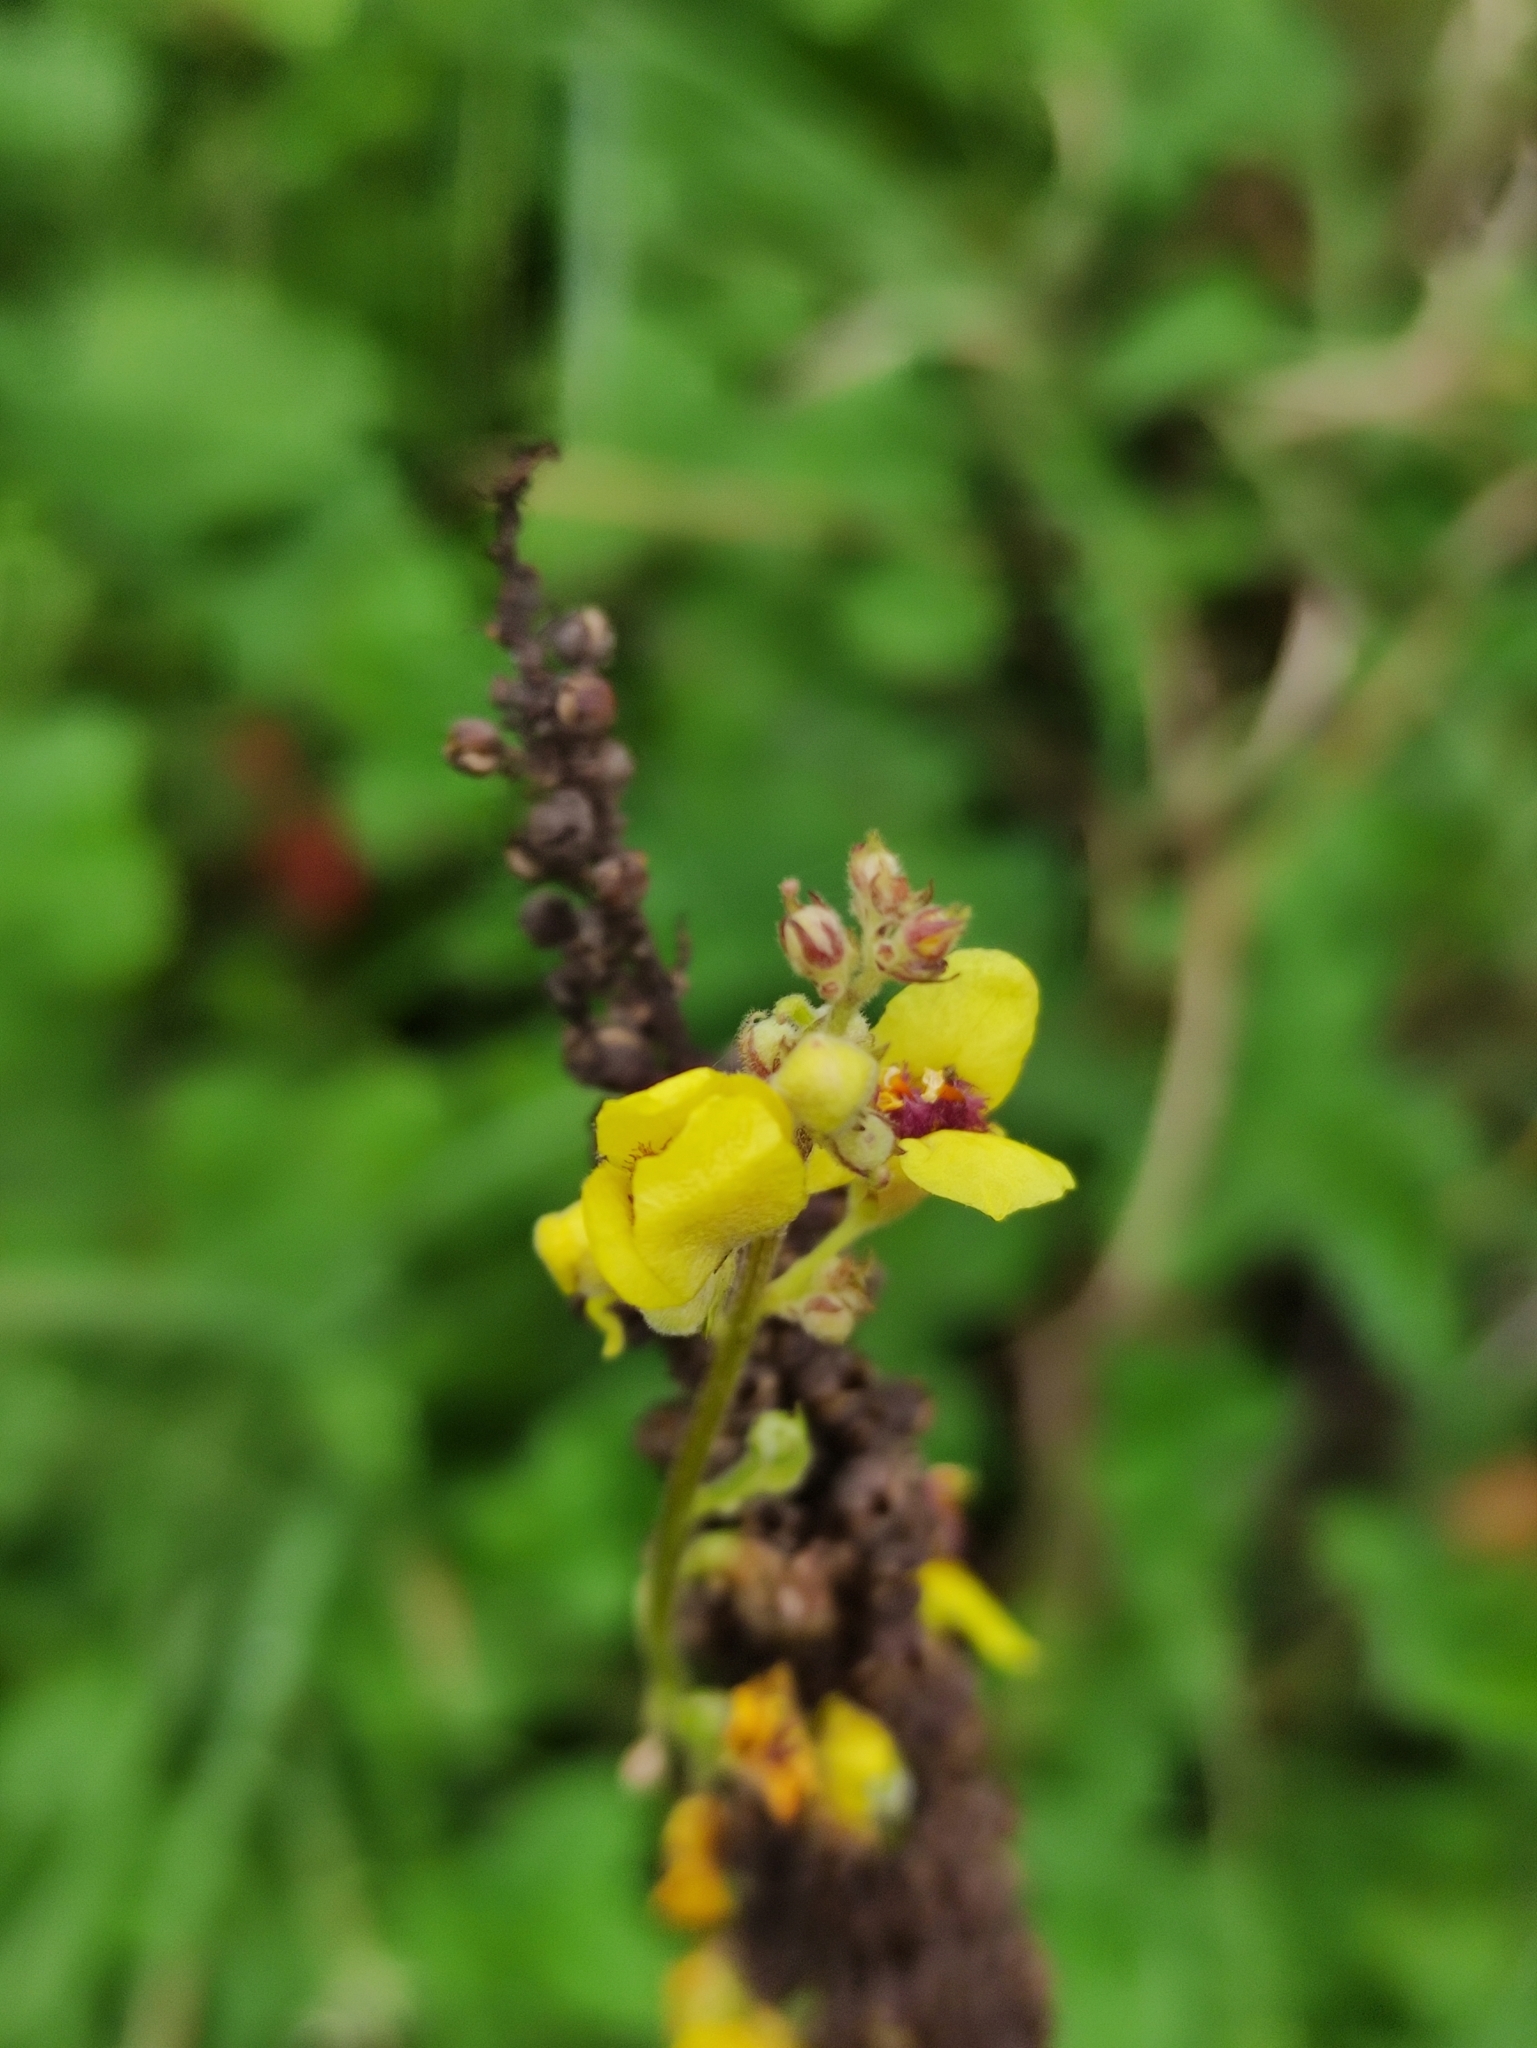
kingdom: Plantae
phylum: Tracheophyta
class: Magnoliopsida
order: Lamiales
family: Scrophulariaceae
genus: Verbascum
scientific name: Verbascum nigrum
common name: Dark mullein
